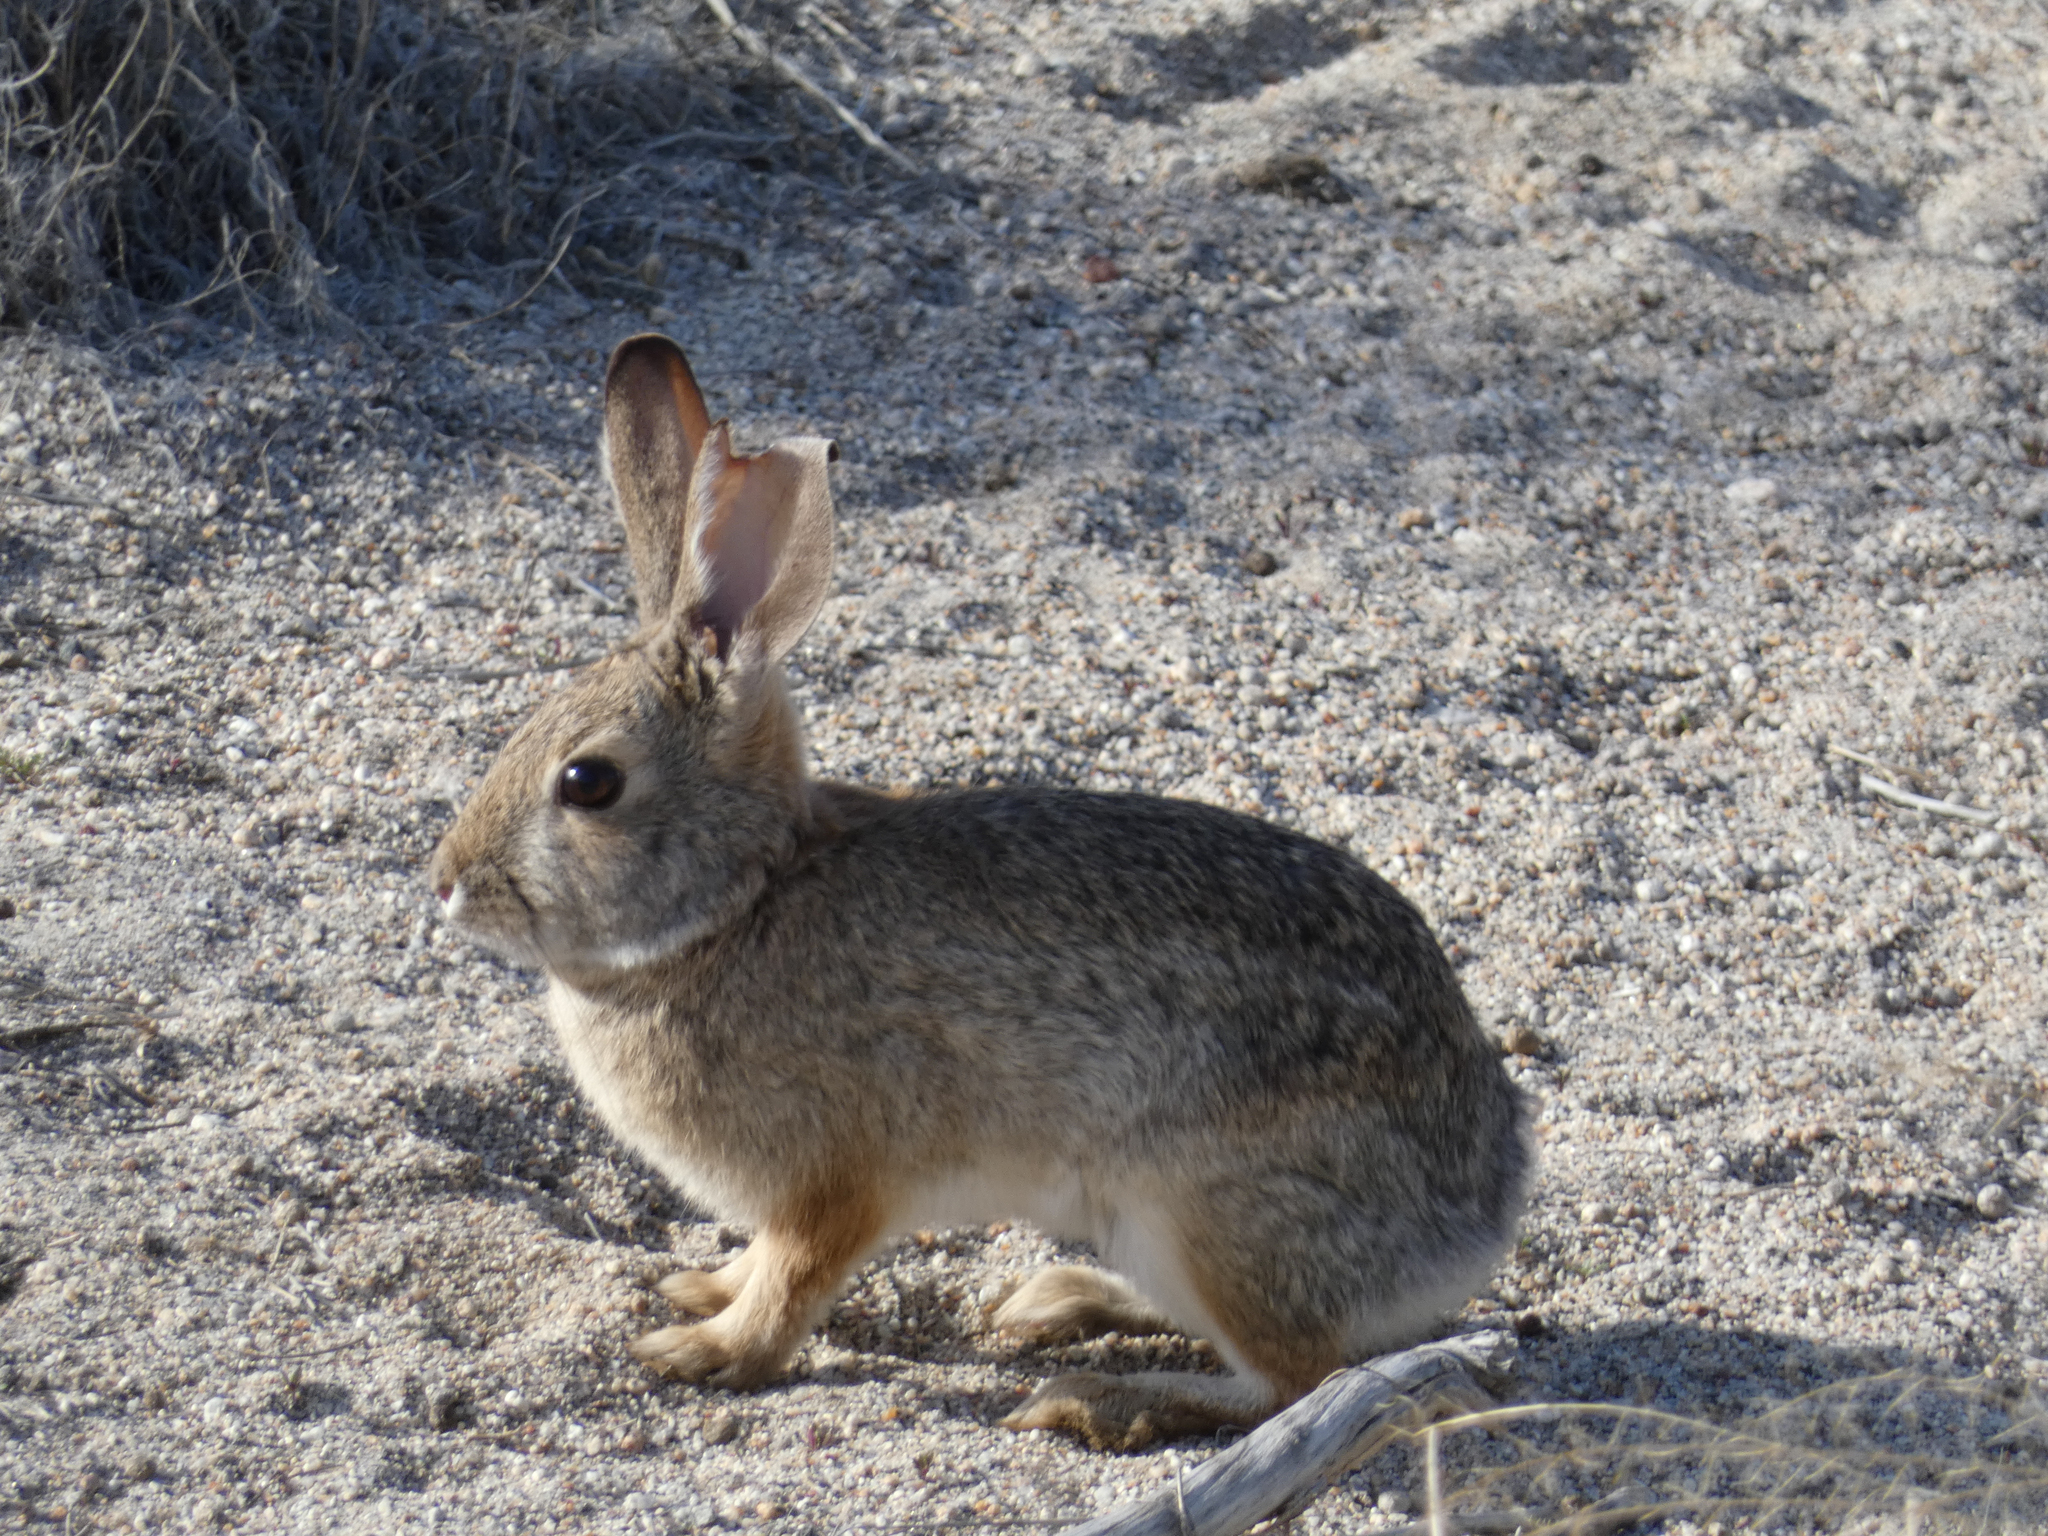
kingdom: Animalia
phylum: Chordata
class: Mammalia
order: Lagomorpha
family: Leporidae
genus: Sylvilagus
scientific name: Sylvilagus audubonii
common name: Desert cottontail
